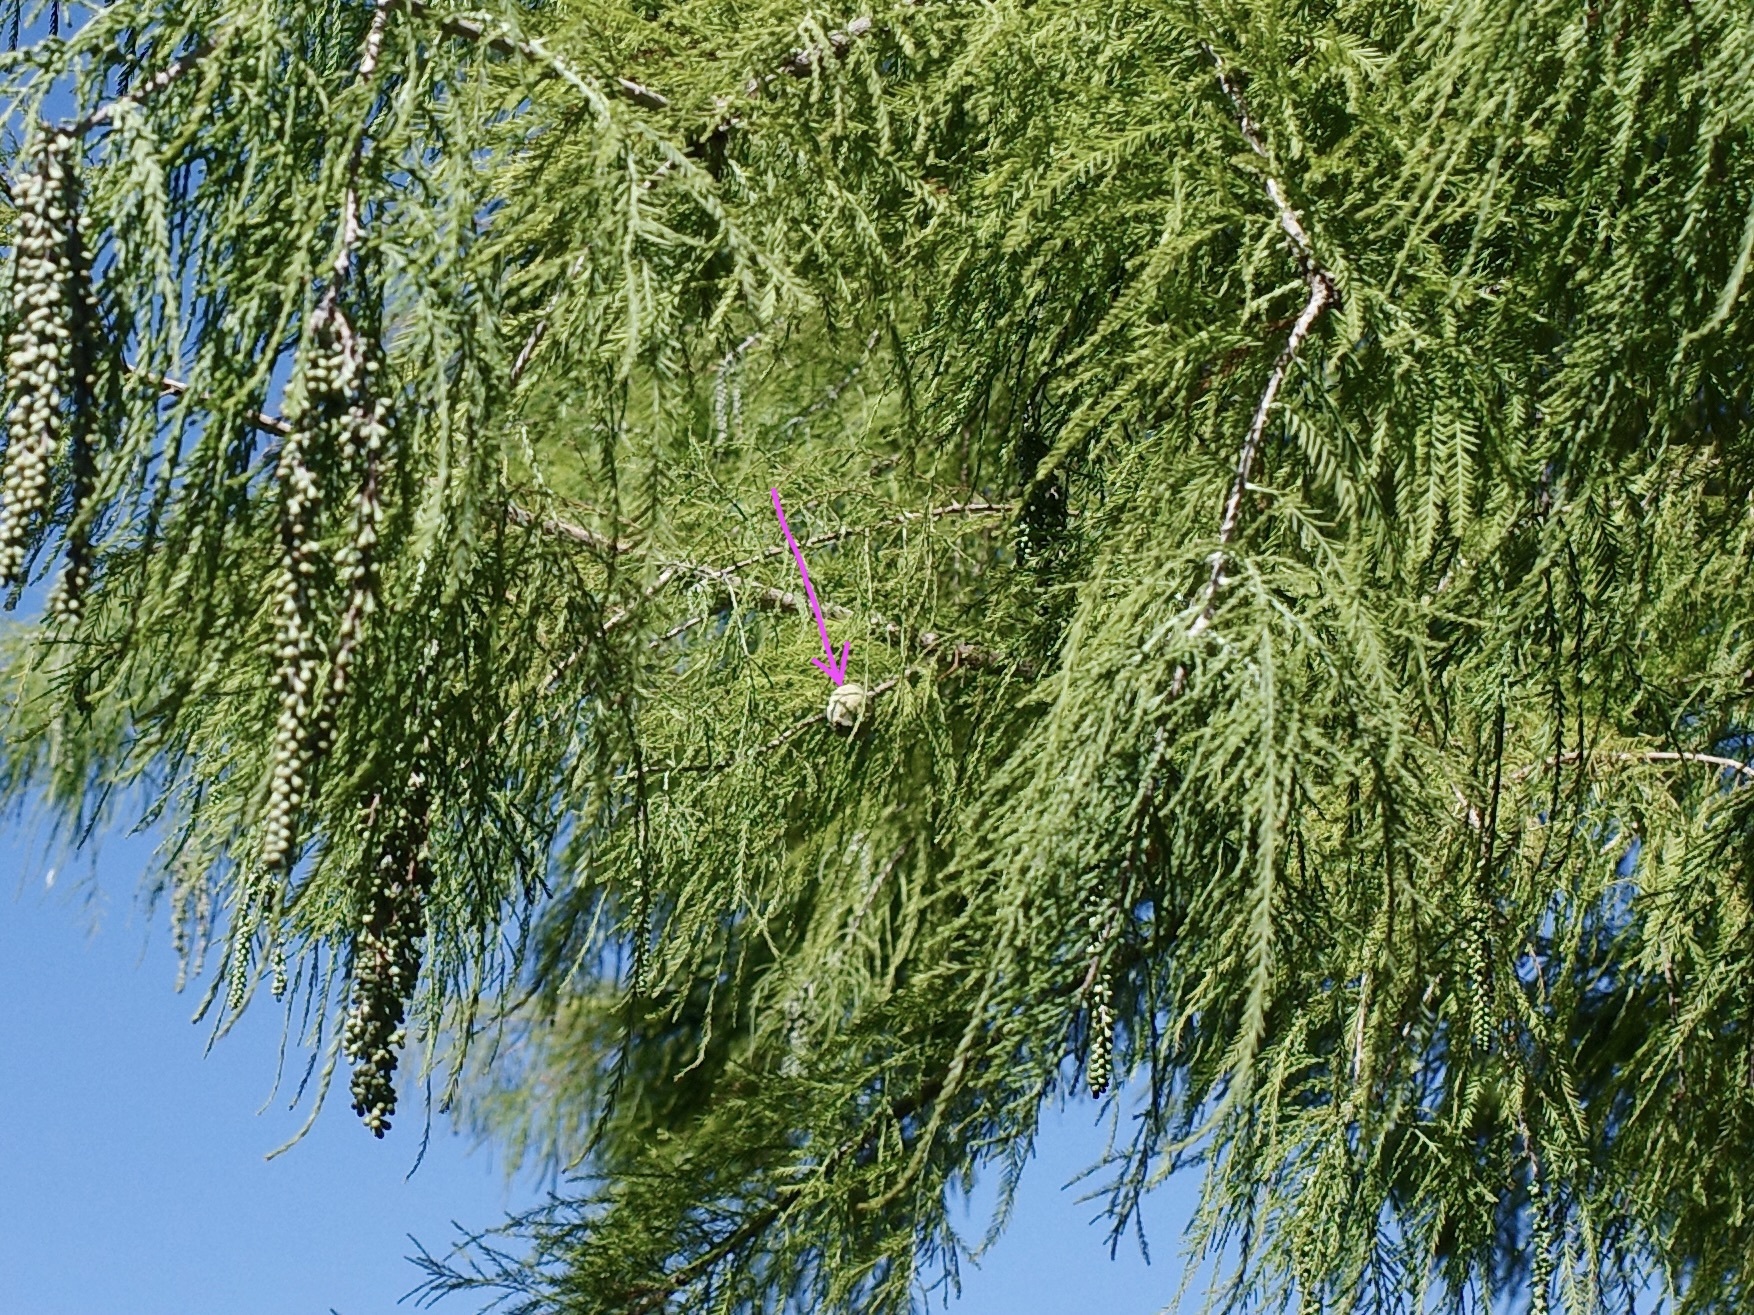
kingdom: Plantae
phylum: Tracheophyta
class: Pinopsida
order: Pinales
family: Cupressaceae
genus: Taxodium
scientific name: Taxodium distichum
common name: Bald cypress
